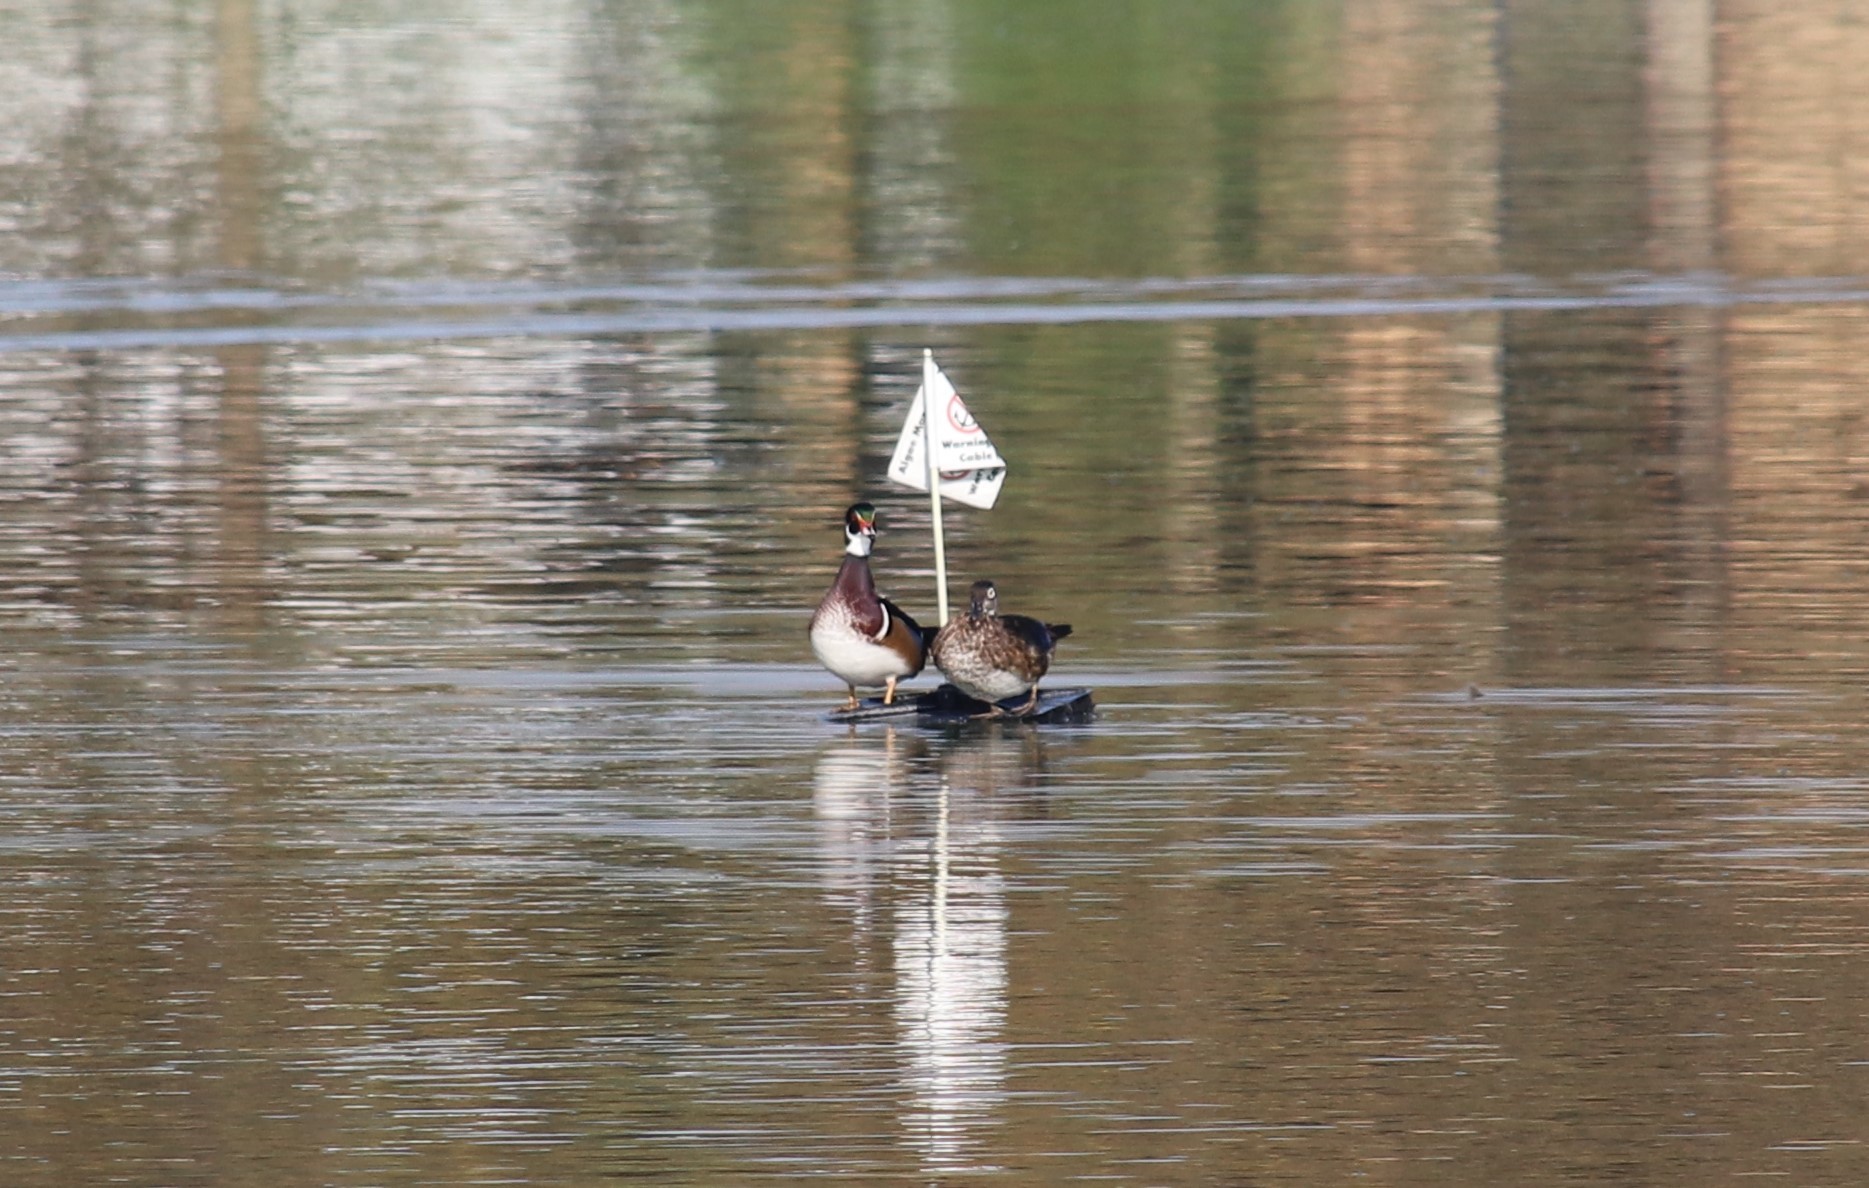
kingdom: Animalia
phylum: Chordata
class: Aves
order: Anseriformes
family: Anatidae
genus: Aix
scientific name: Aix sponsa
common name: Wood duck
